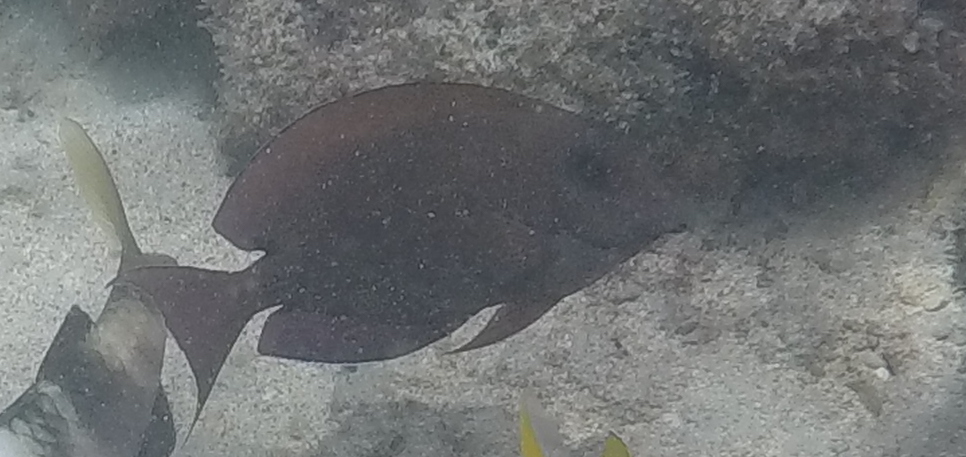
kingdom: Animalia
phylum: Chordata
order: Perciformes
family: Acanthuridae
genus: Acanthurus
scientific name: Acanthurus nigrofuscus
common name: Blackspot surgeonfish
